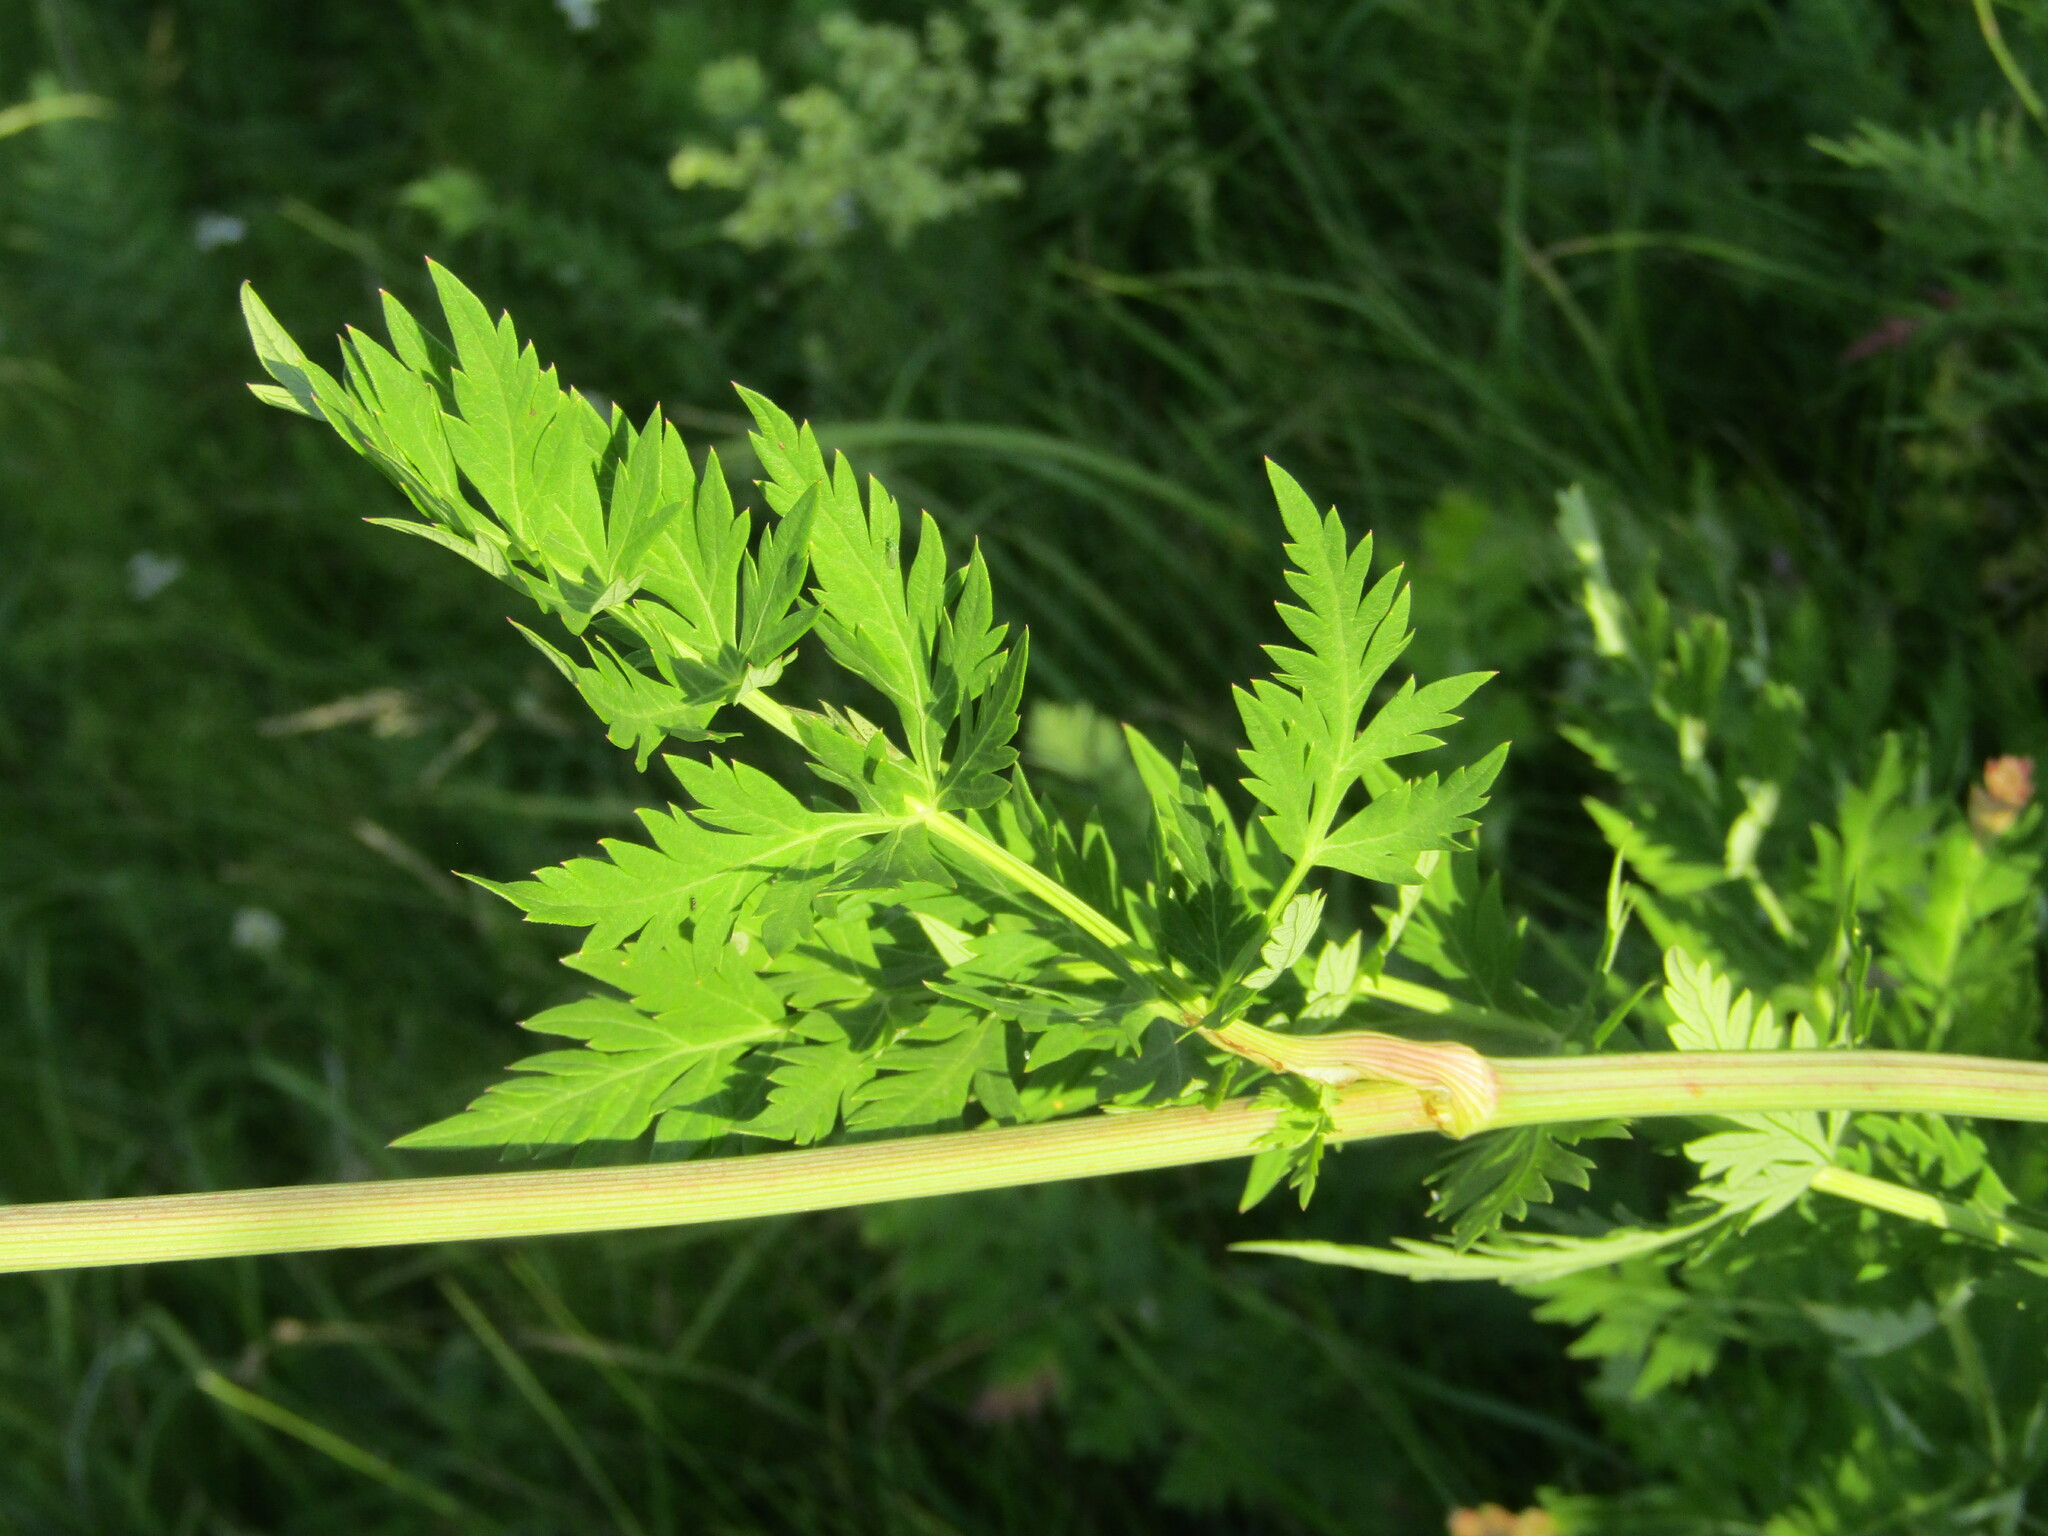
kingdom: Plantae
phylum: Tracheophyta
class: Magnoliopsida
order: Apiales
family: Apiaceae
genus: Seseli
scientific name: Seseli libanotis
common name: Mooncarrot
